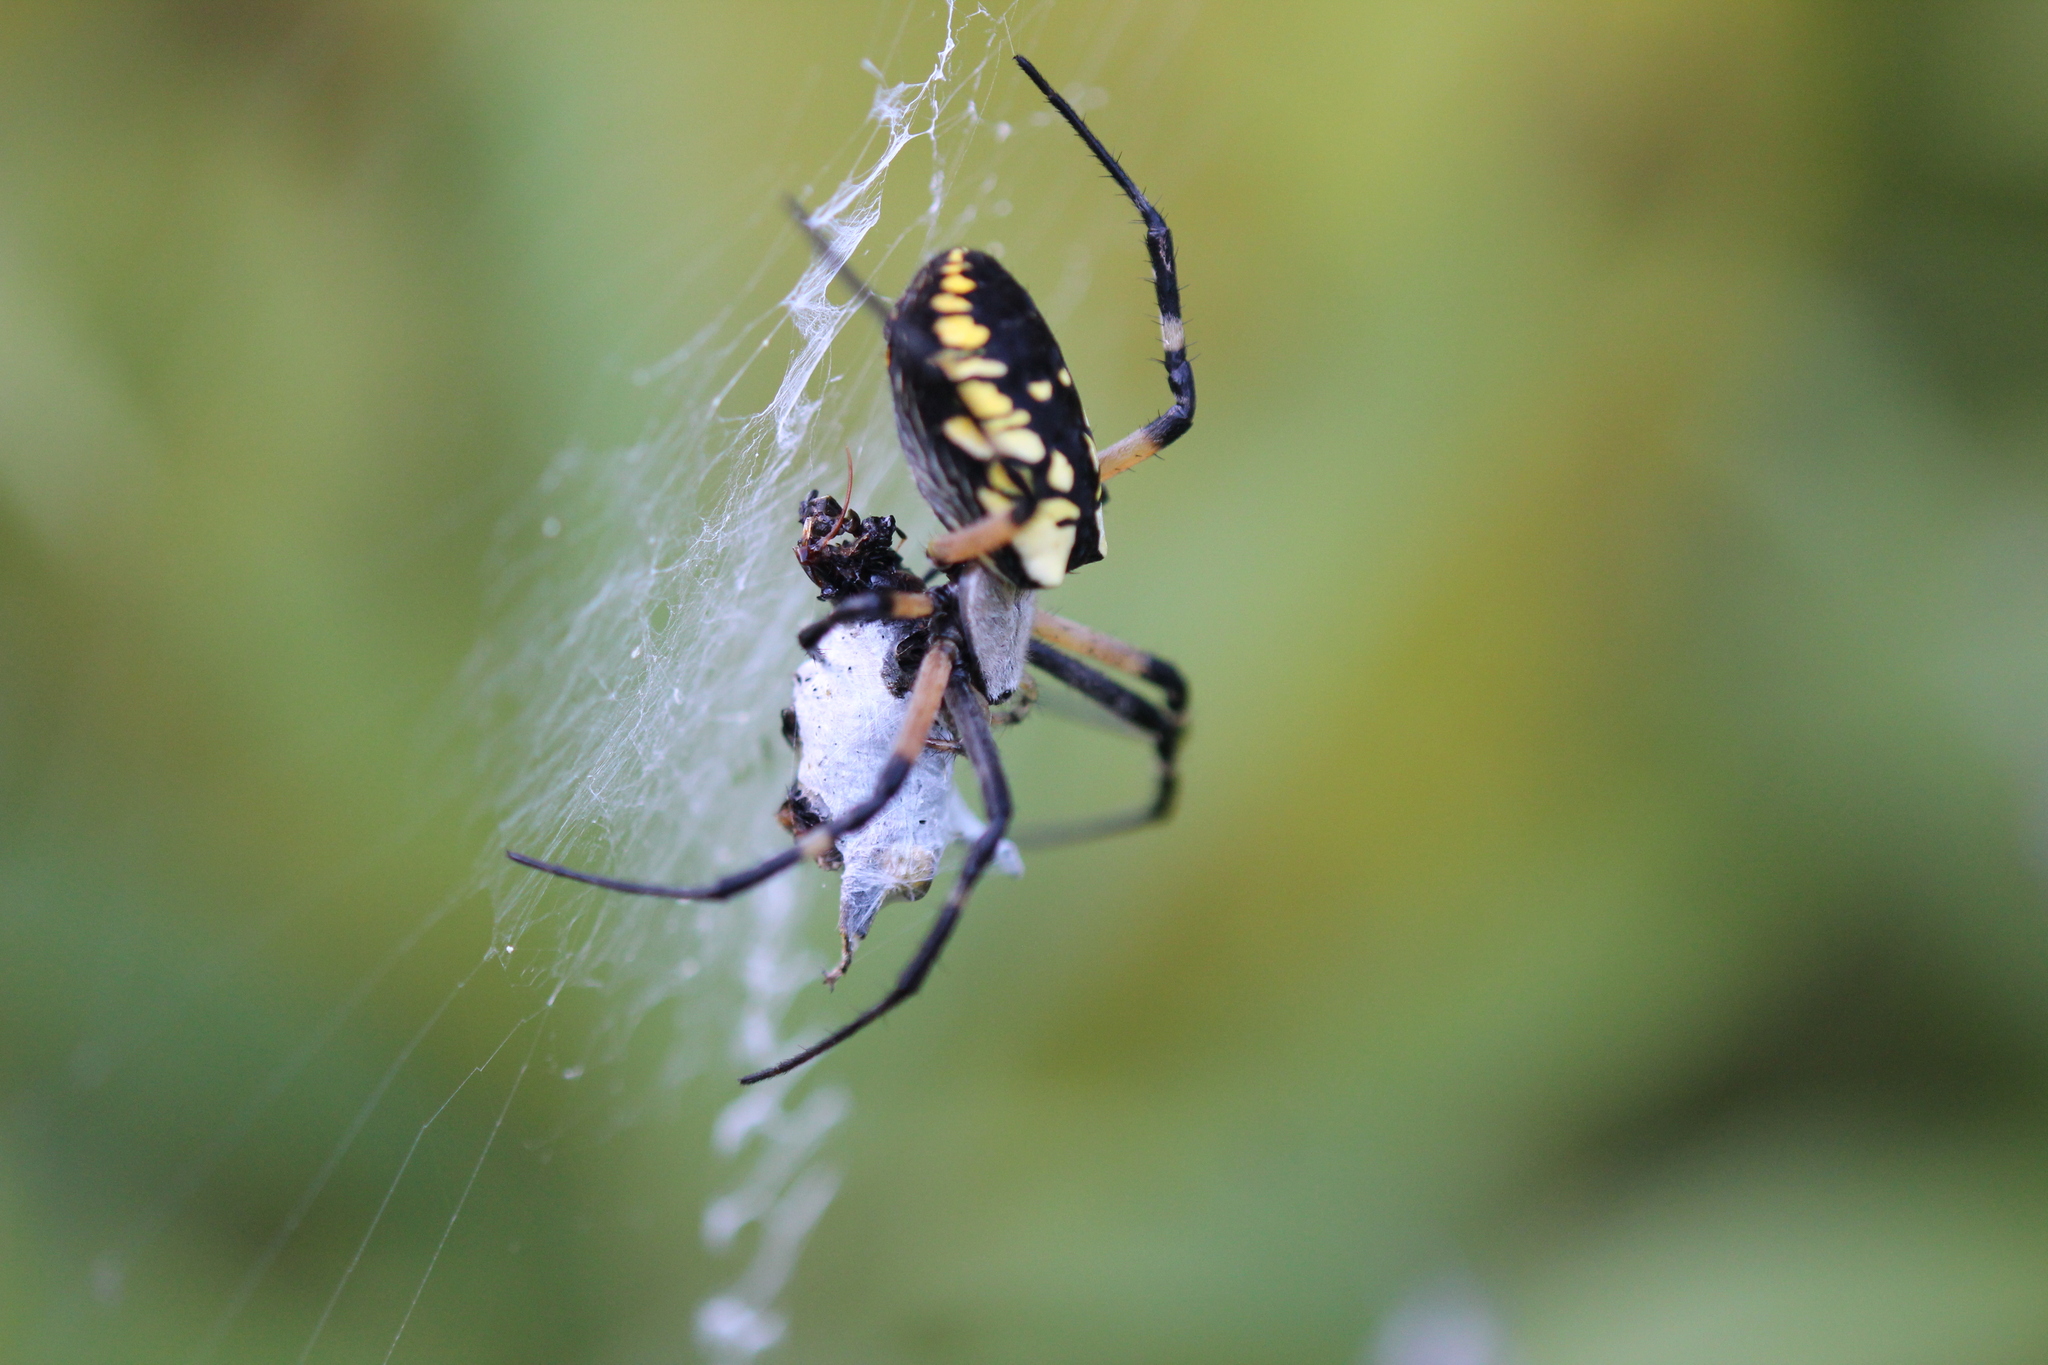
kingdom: Animalia
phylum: Arthropoda
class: Arachnida
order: Araneae
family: Araneidae
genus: Argiope
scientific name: Argiope aurantia
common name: Orb weavers
